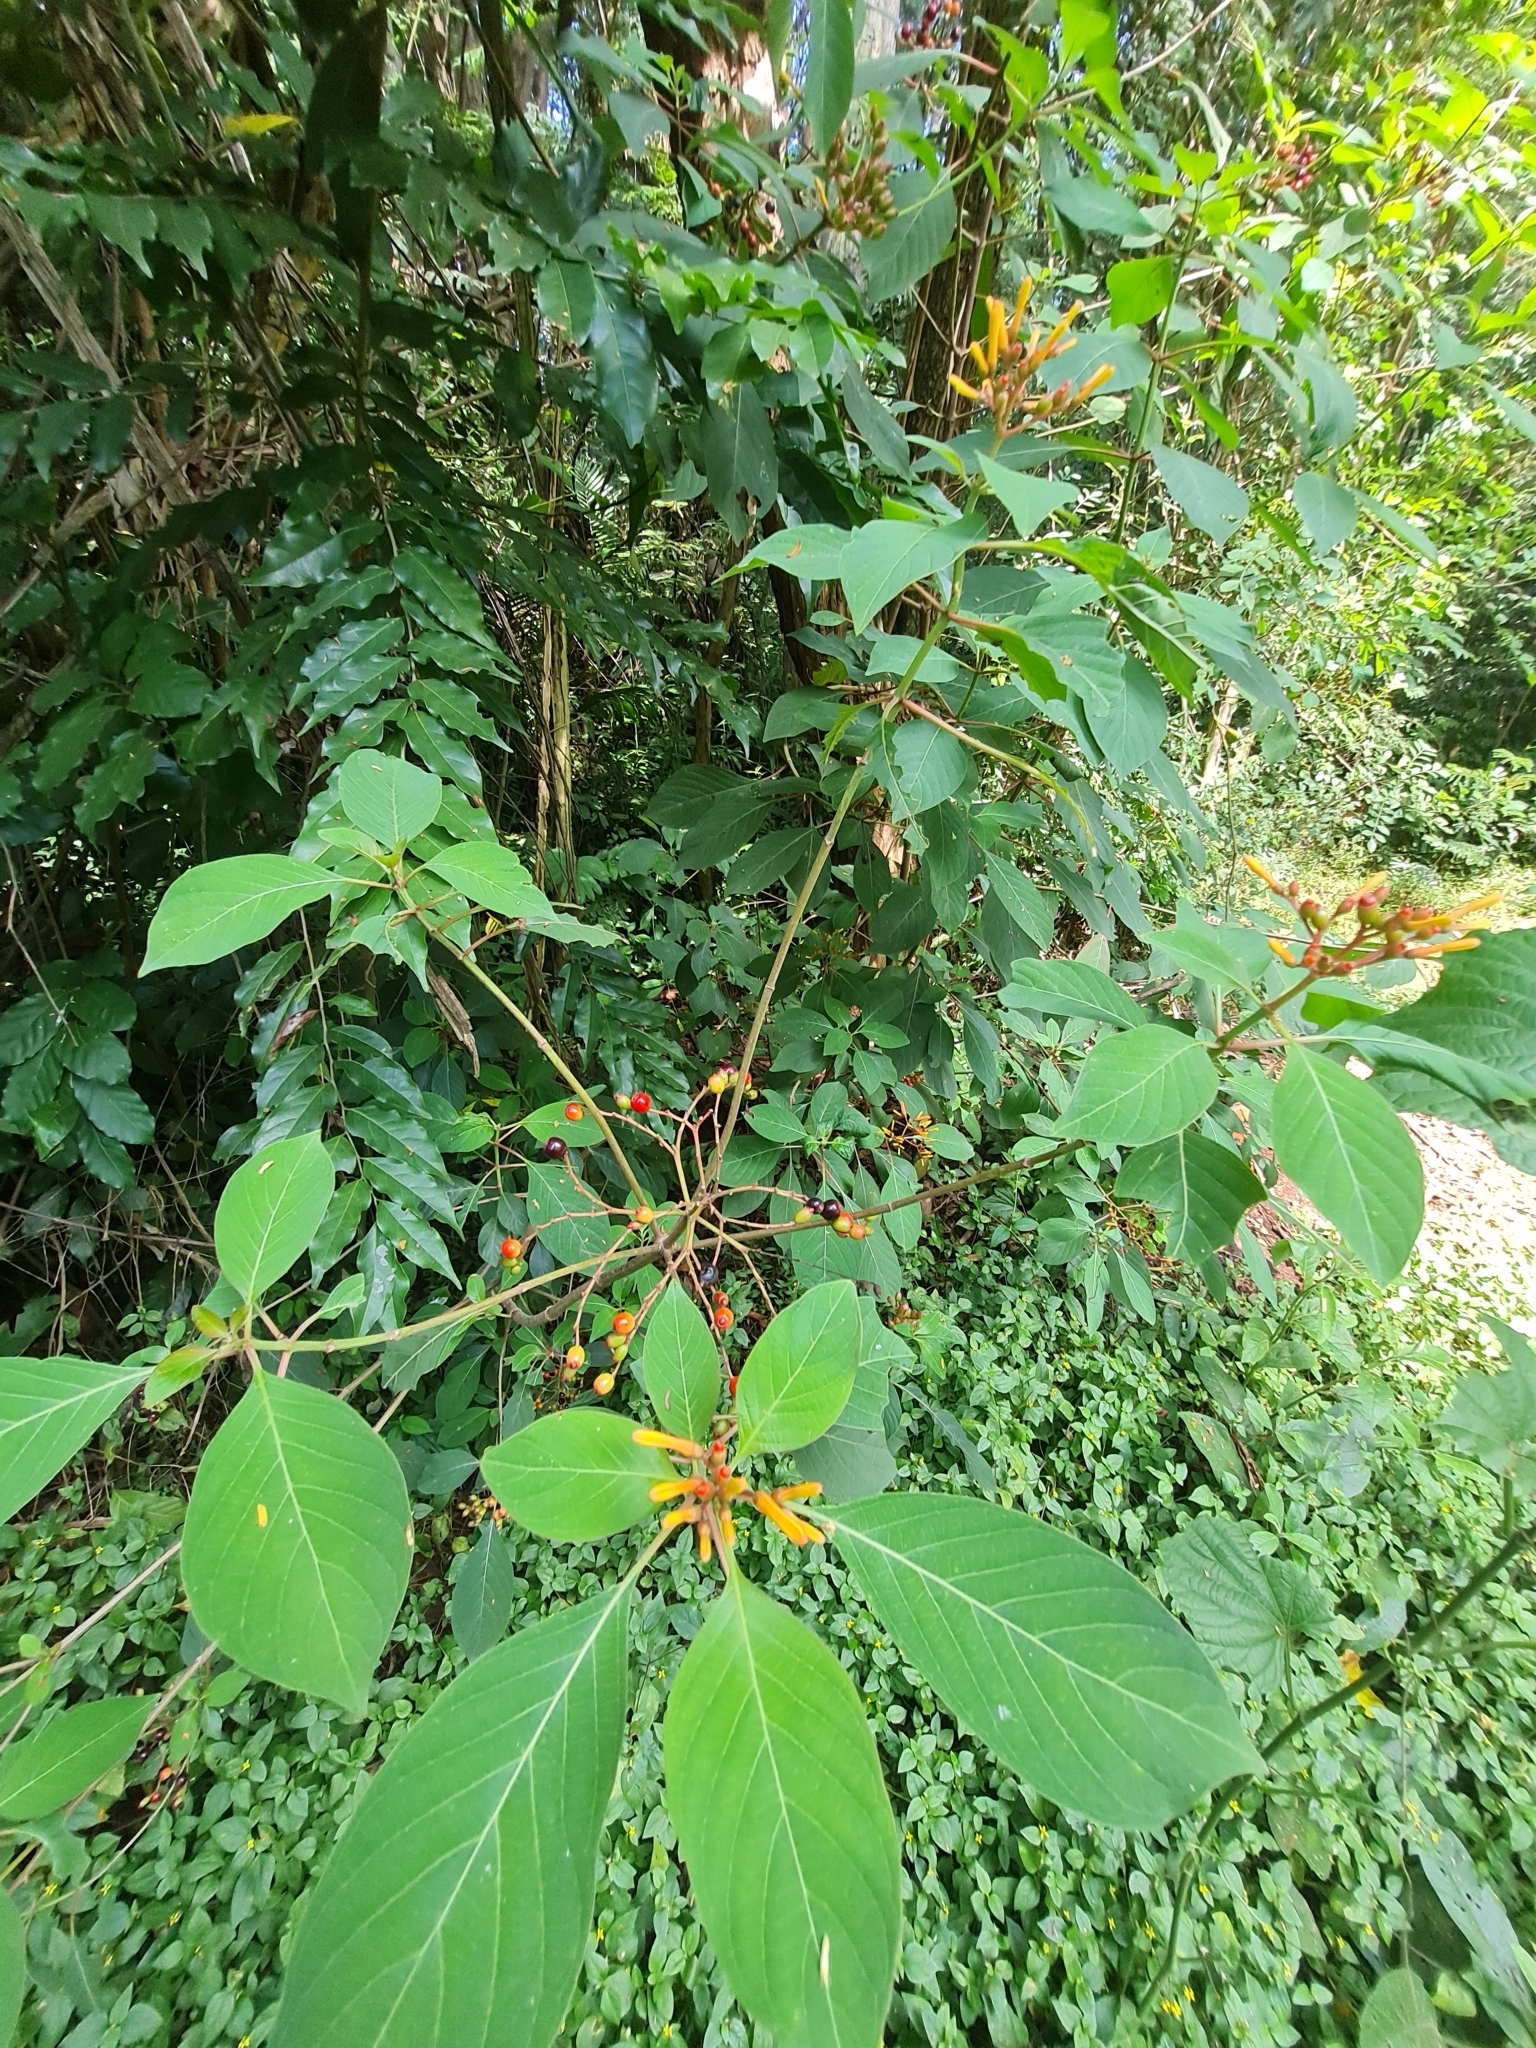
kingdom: Plantae
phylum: Tracheophyta
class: Magnoliopsida
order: Gentianales
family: Rubiaceae
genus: Hamelia
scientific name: Hamelia patens
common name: Redhead
